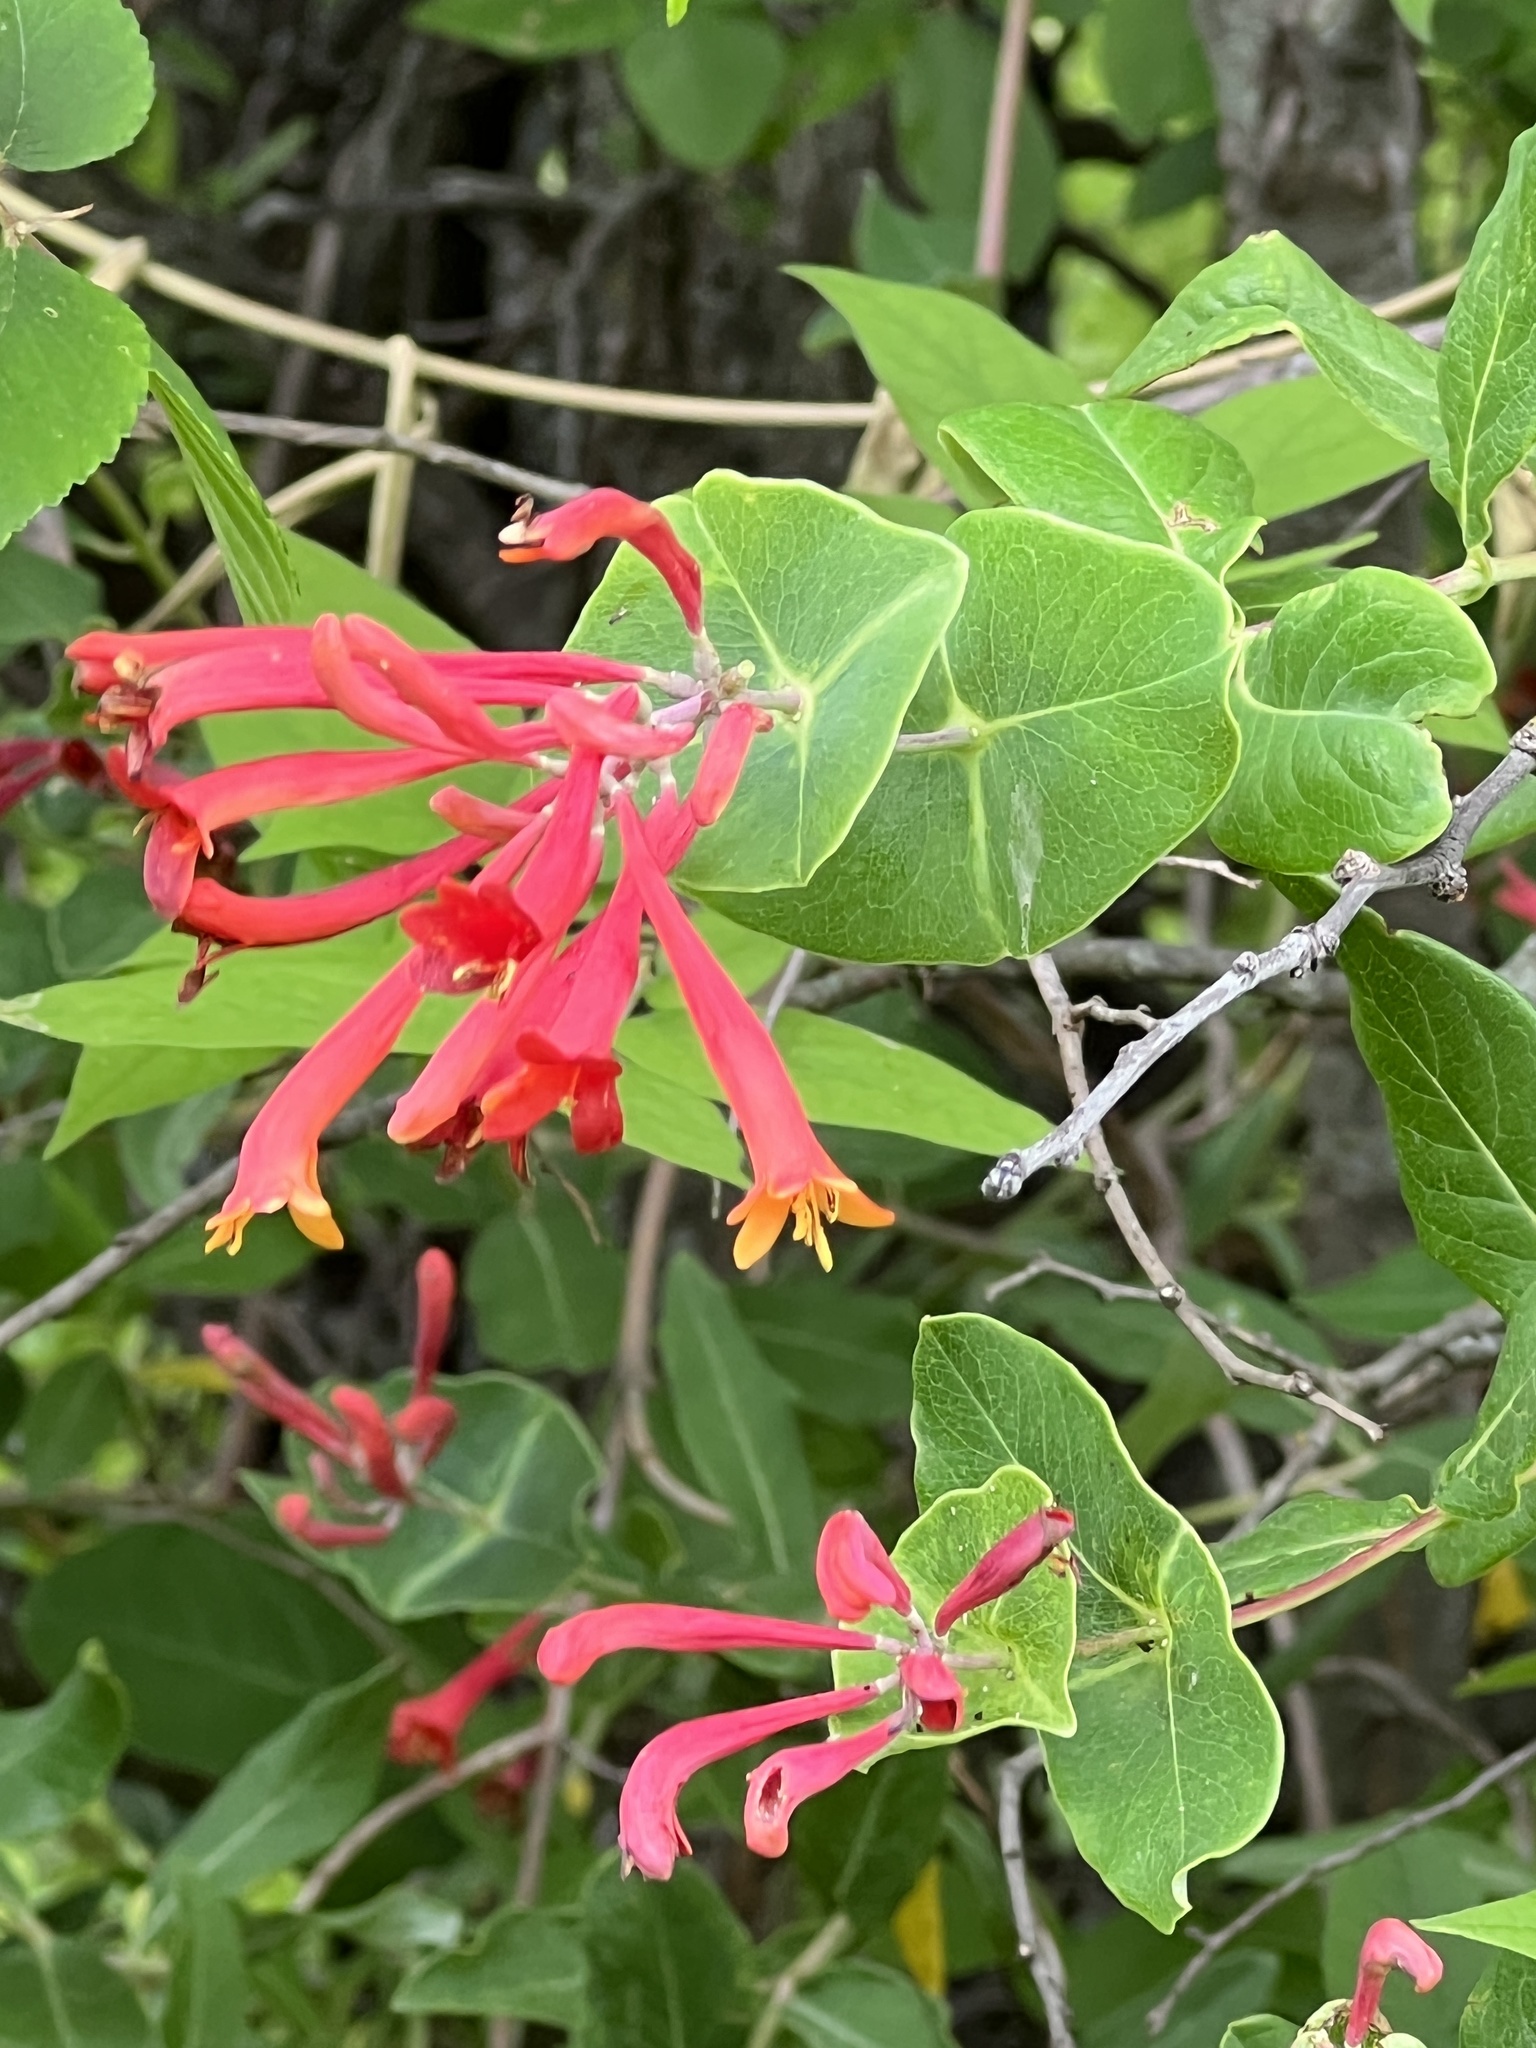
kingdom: Plantae
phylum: Tracheophyta
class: Magnoliopsida
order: Dipsacales
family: Caprifoliaceae
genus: Lonicera
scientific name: Lonicera sempervirens
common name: Coral honeysuckle
